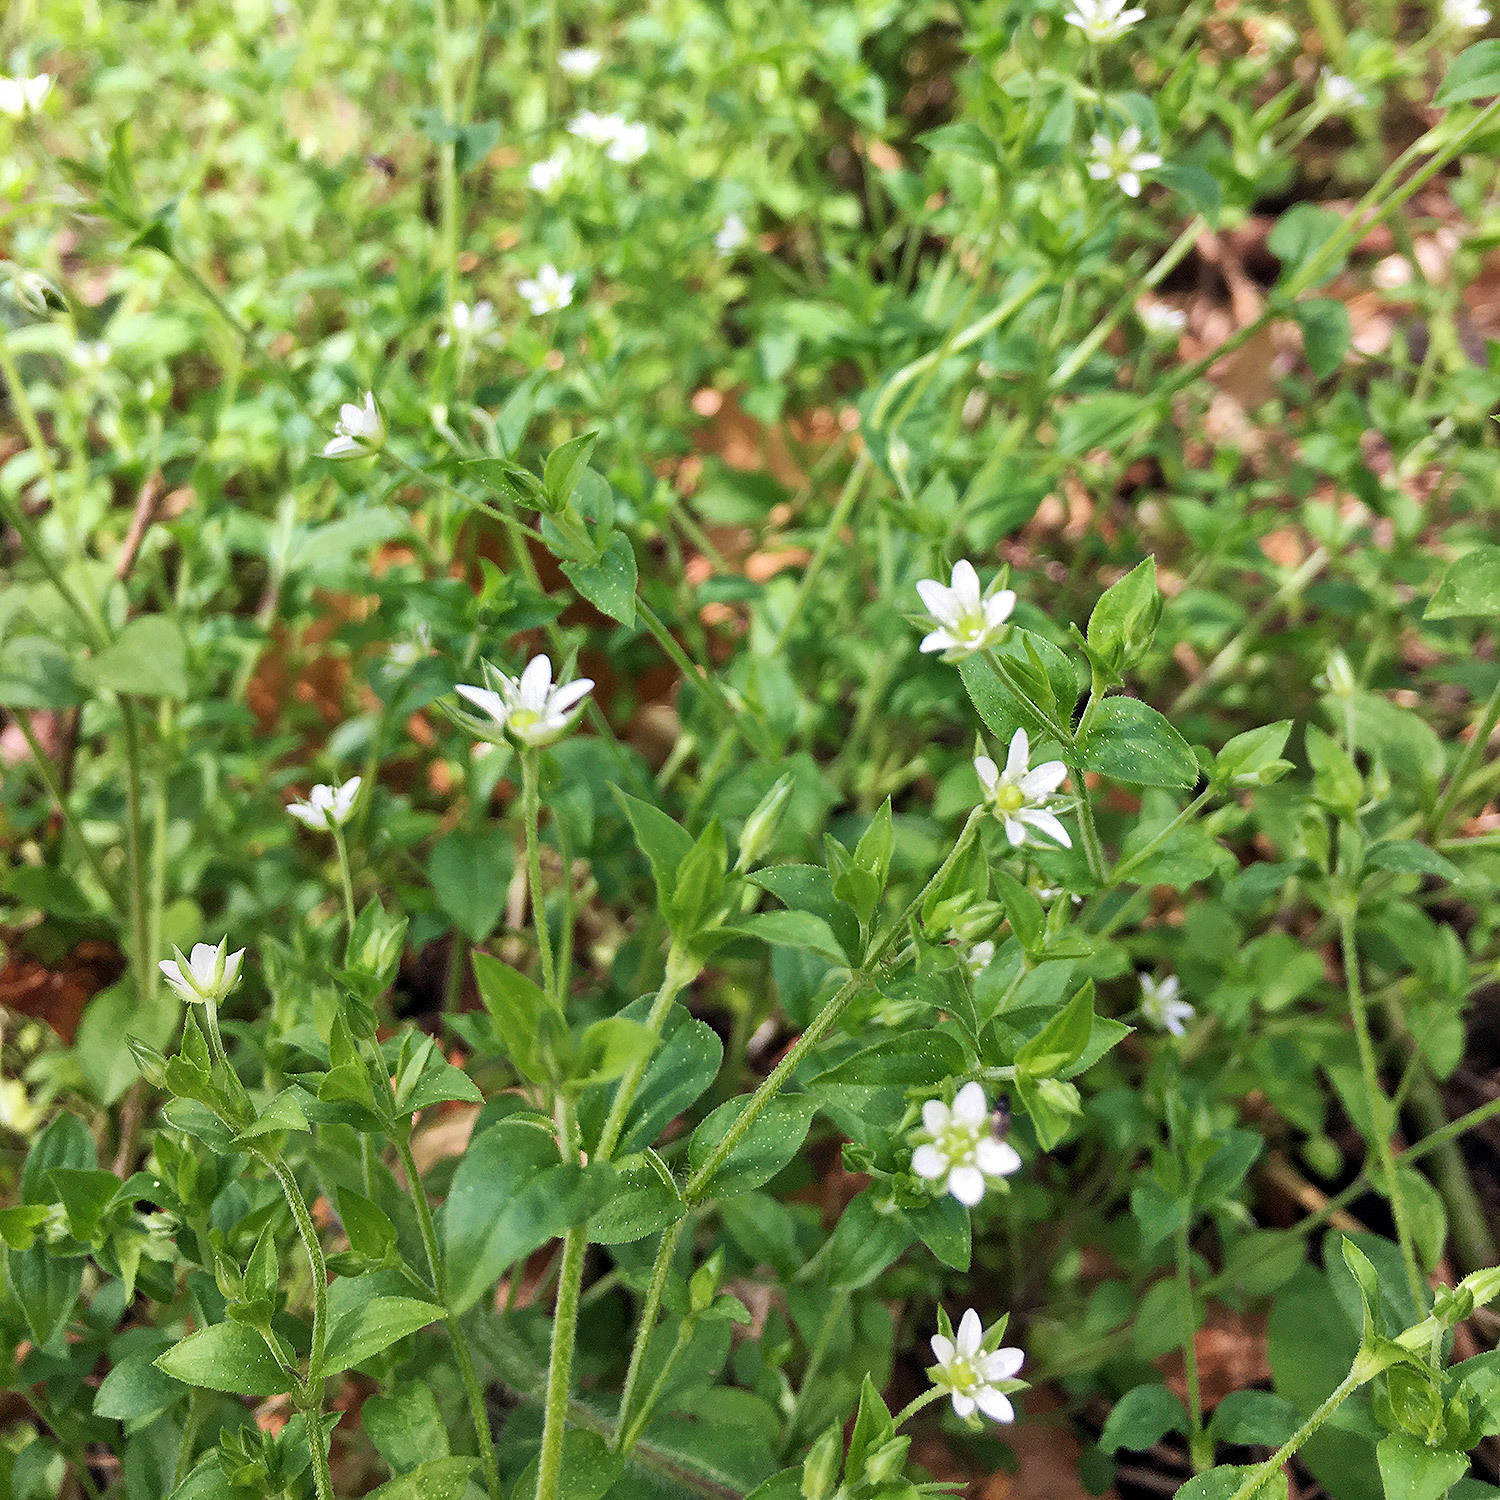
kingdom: Plantae
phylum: Tracheophyta
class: Magnoliopsida
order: Caryophyllales
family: Caryophyllaceae
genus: Moehringia
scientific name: Moehringia trinervia
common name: Three-nerved sandwort
